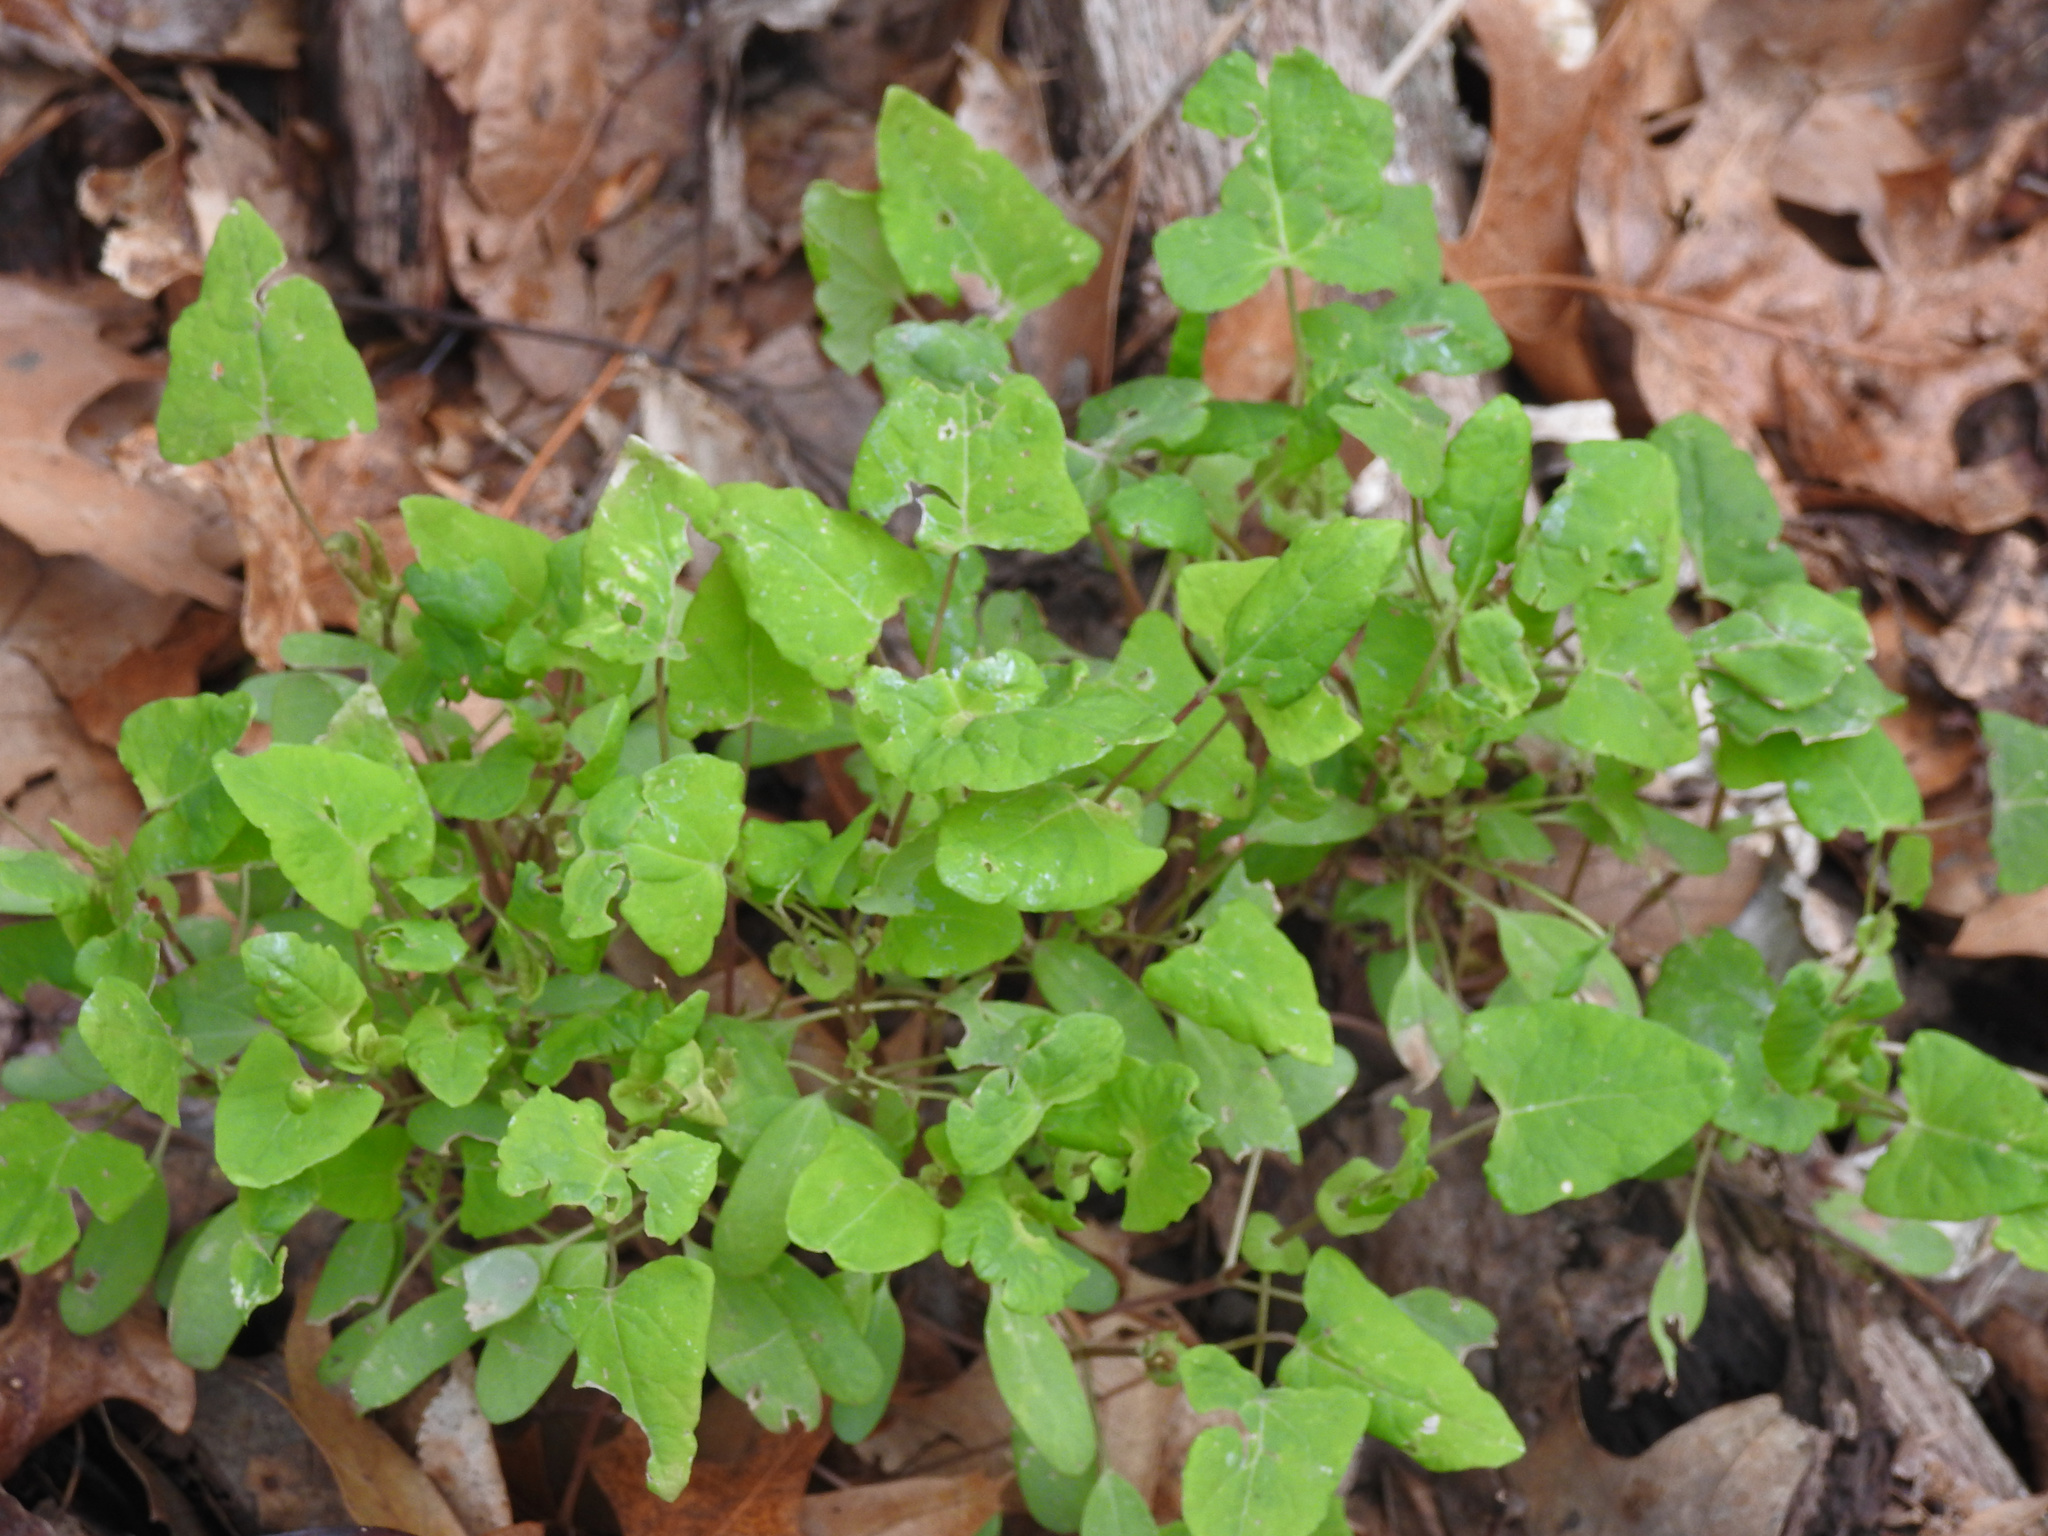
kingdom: Plantae
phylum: Tracheophyta
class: Magnoliopsida
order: Caryophyllales
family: Polygonaceae
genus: Persicaria
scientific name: Persicaria perfoliata
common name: Asiatic tearthumb
